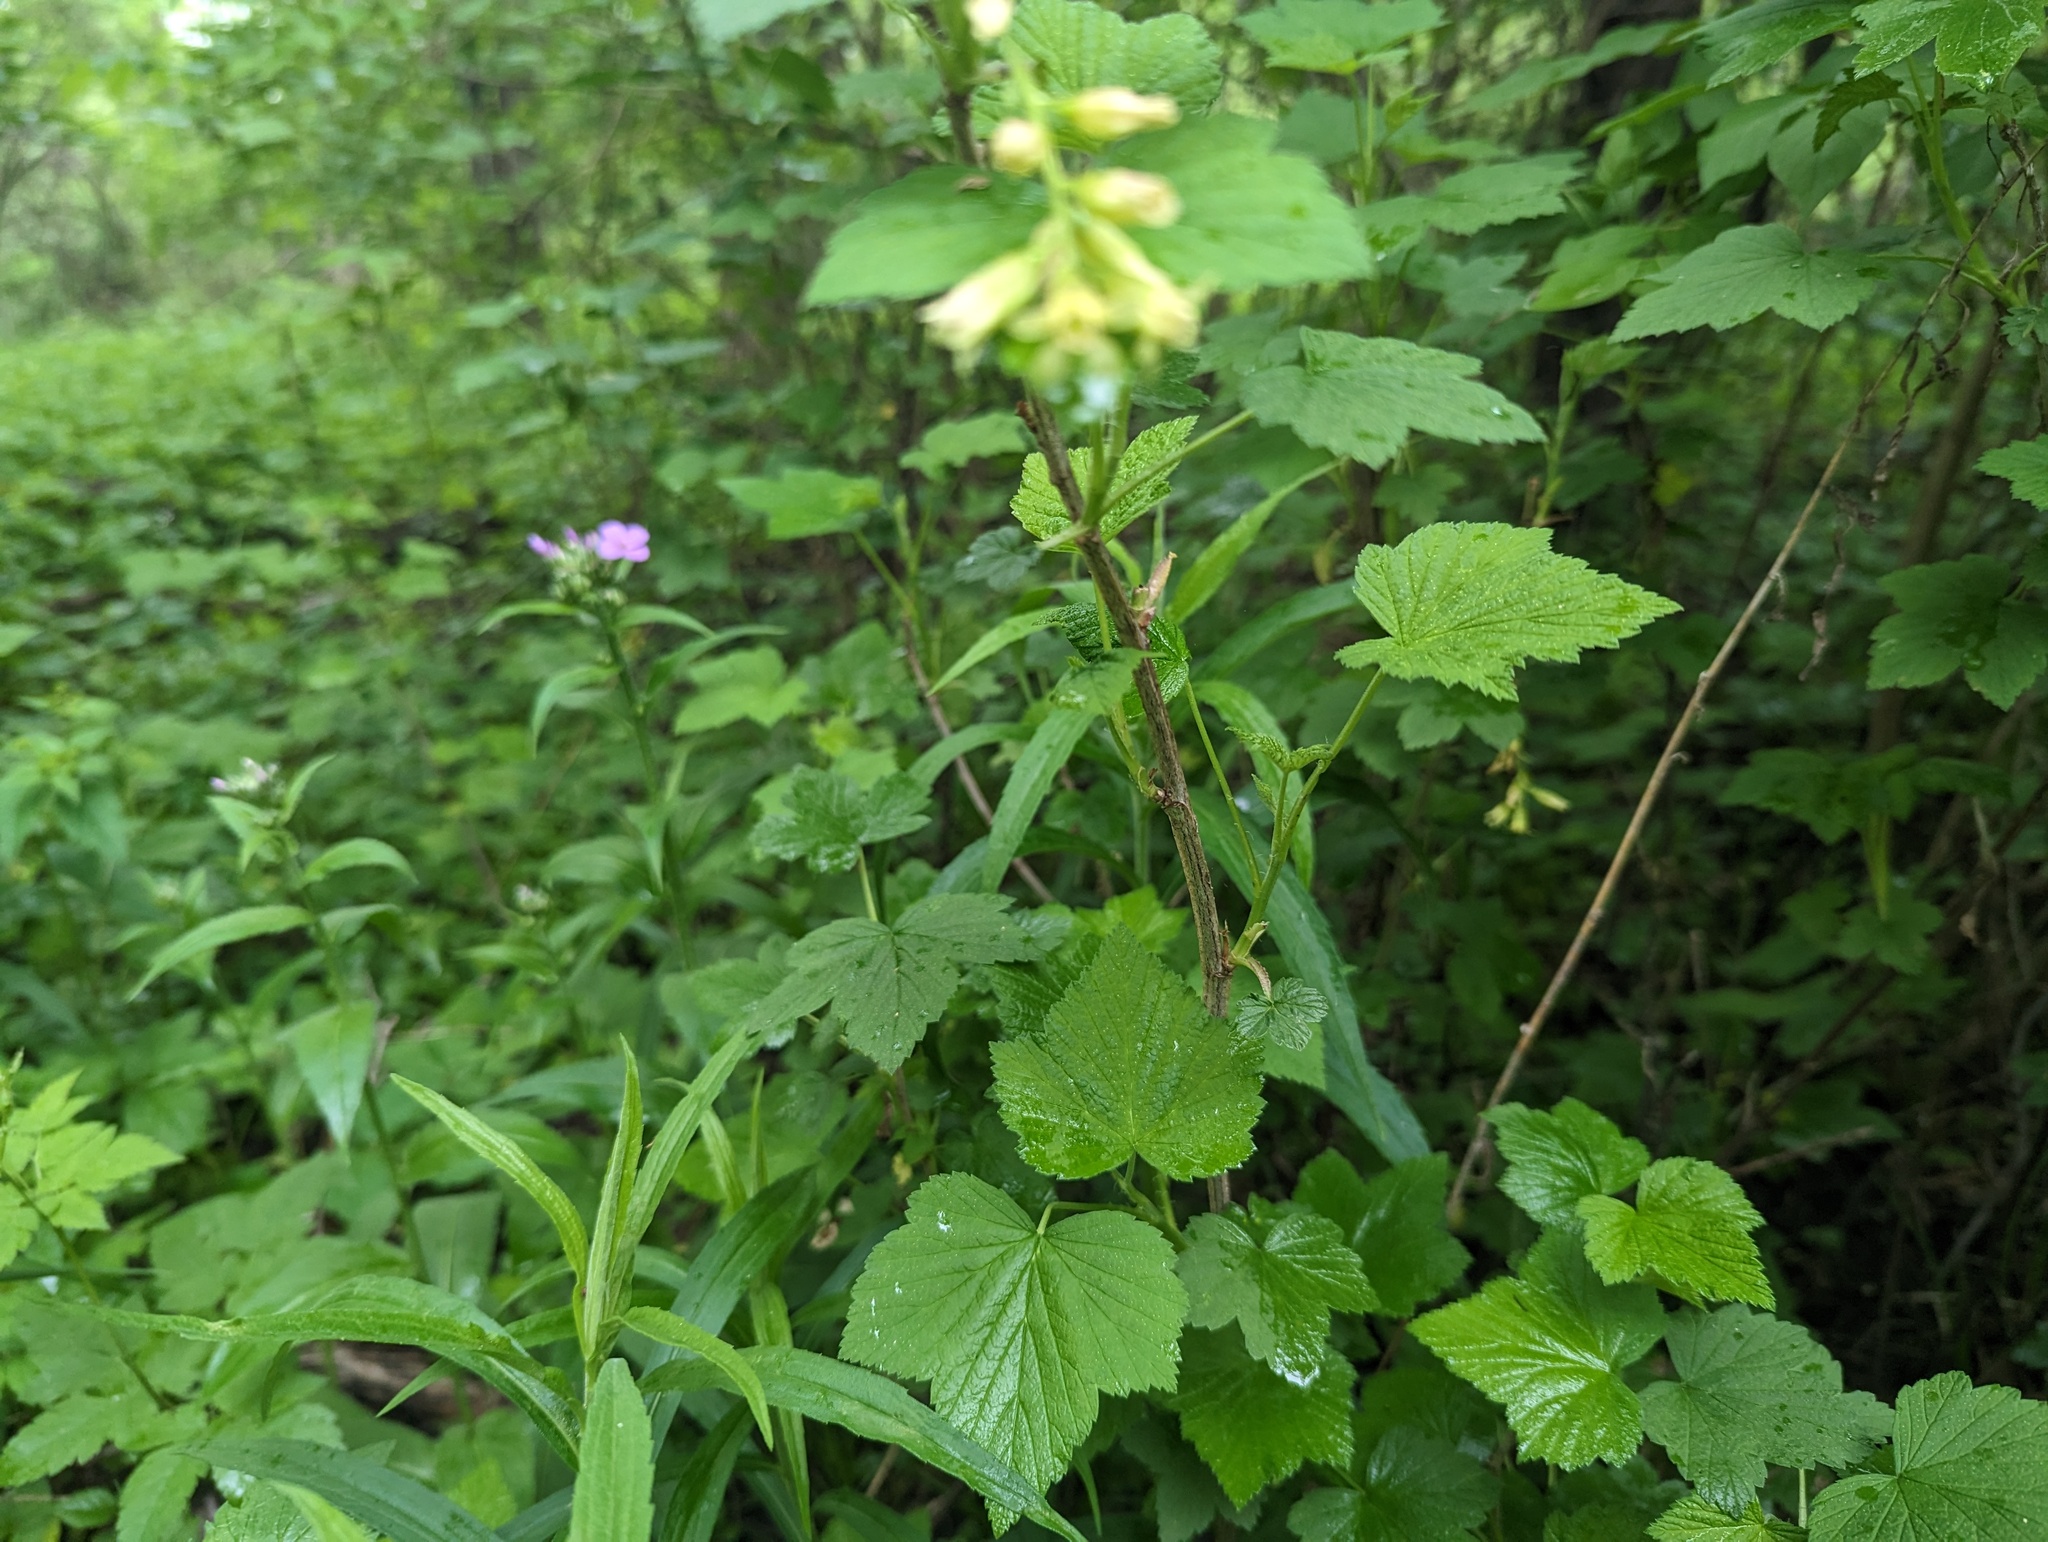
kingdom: Plantae
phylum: Tracheophyta
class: Magnoliopsida
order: Saxifragales
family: Grossulariaceae
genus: Ribes
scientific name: Ribes americanum
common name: American black currant
